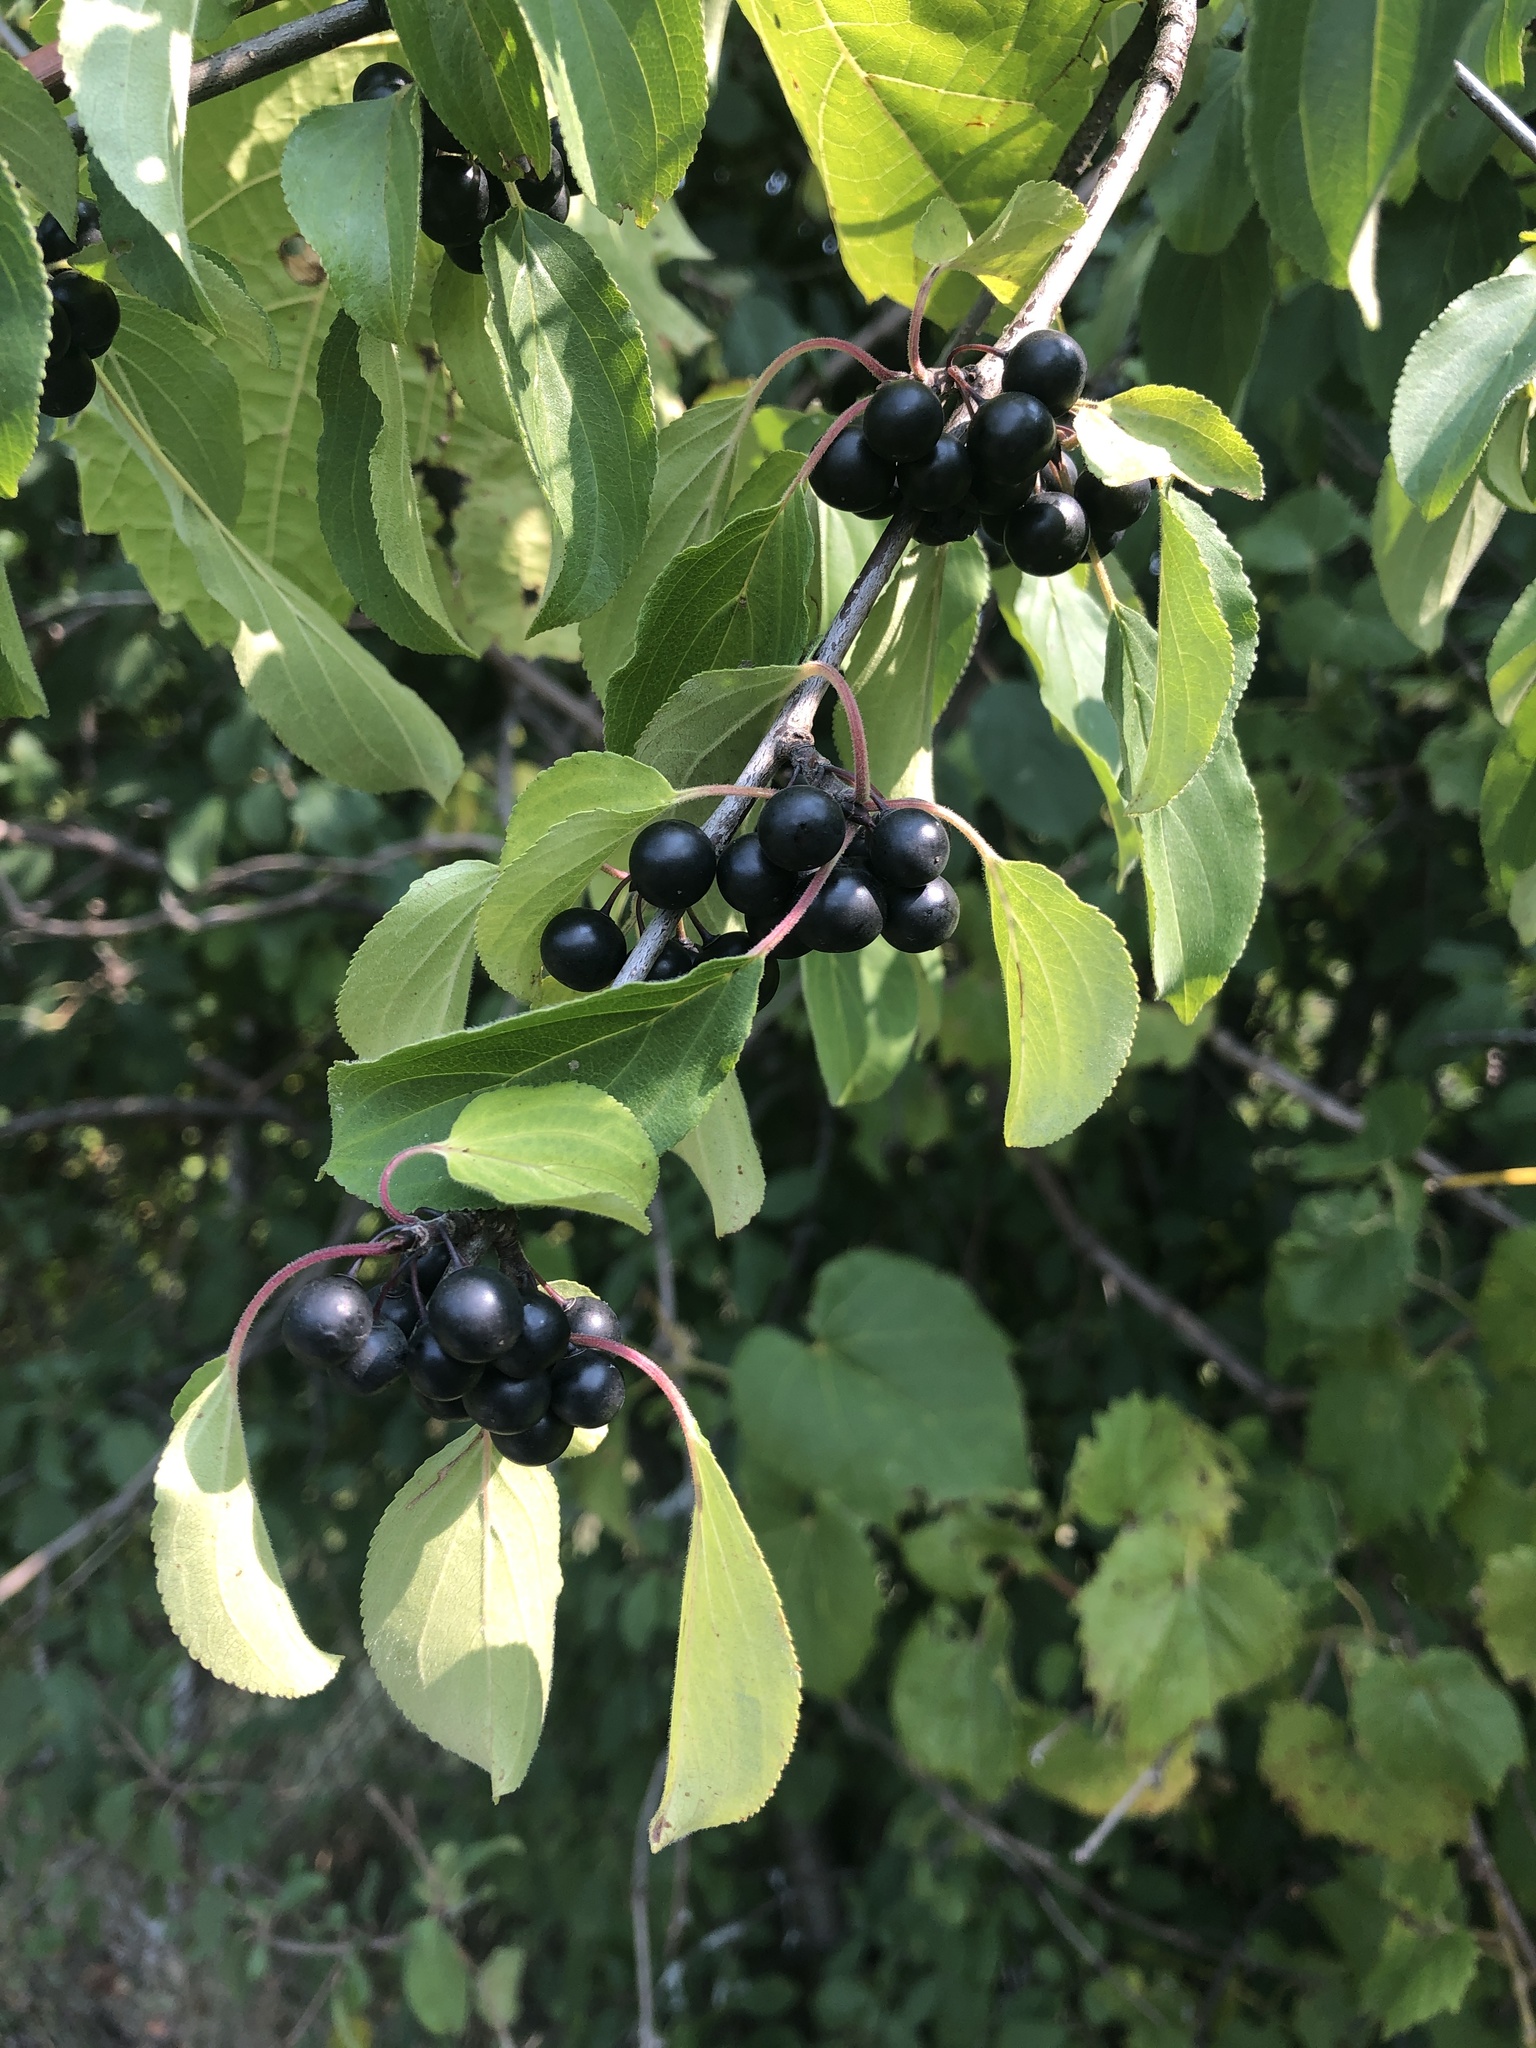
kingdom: Plantae
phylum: Tracheophyta
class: Magnoliopsida
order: Rosales
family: Rhamnaceae
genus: Rhamnus
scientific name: Rhamnus cathartica
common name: Common buckthorn
